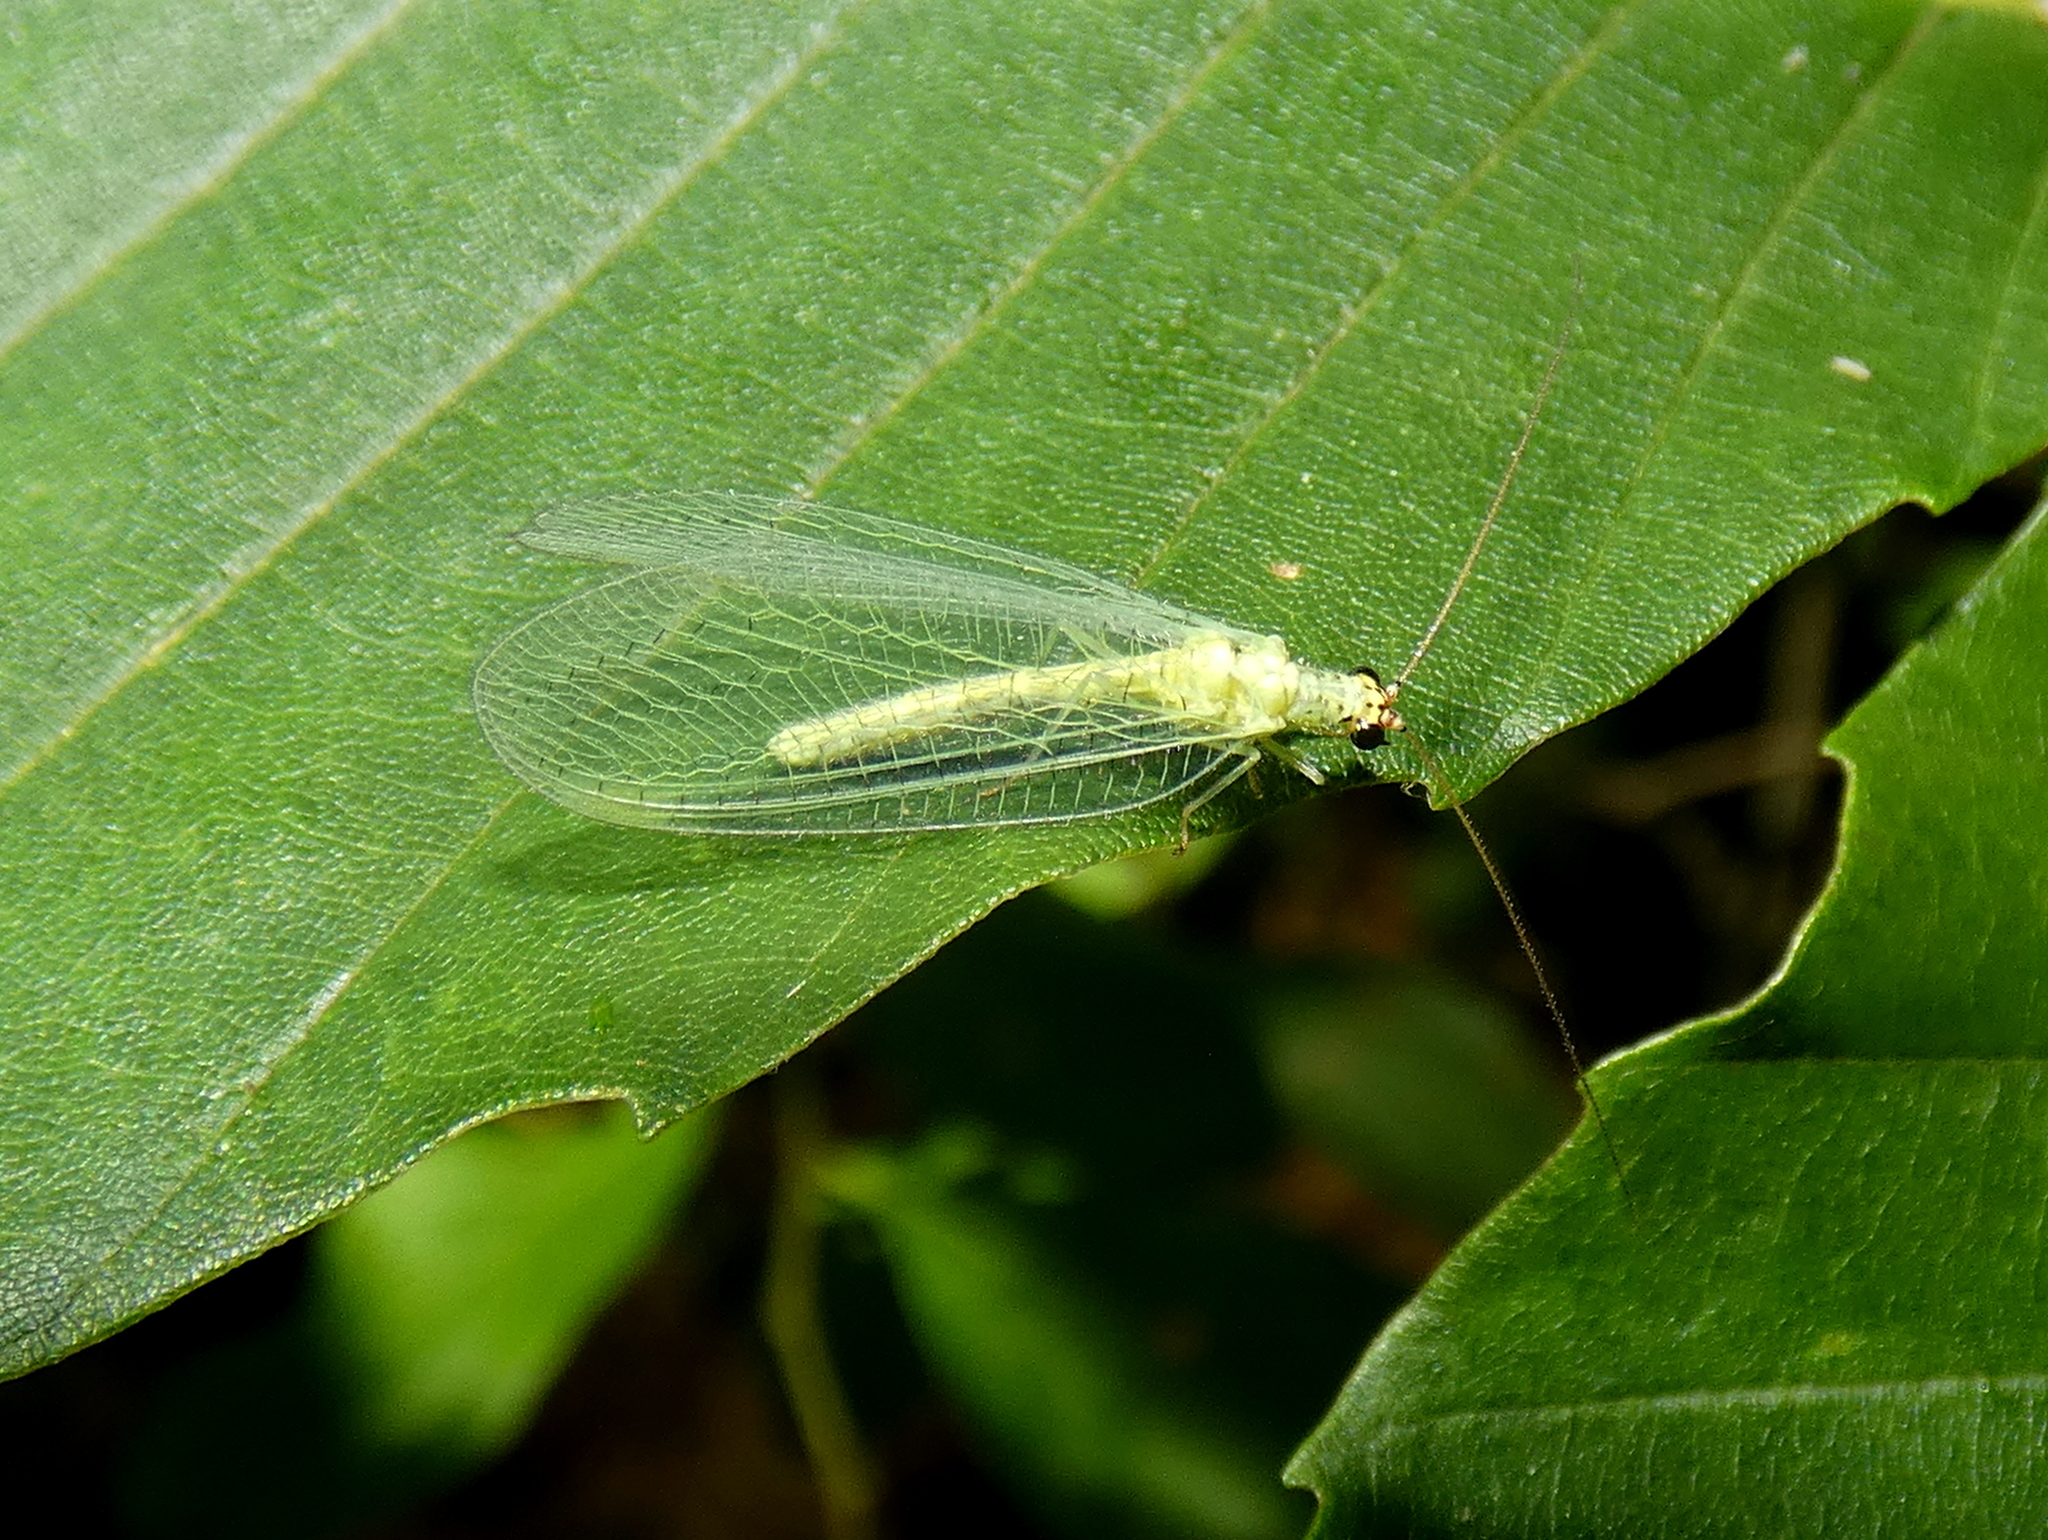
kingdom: Animalia
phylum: Arthropoda
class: Insecta
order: Neuroptera
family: Chrysopidae
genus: Chrysopa
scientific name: Chrysopa oculata
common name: Golden-eyed lacewing
